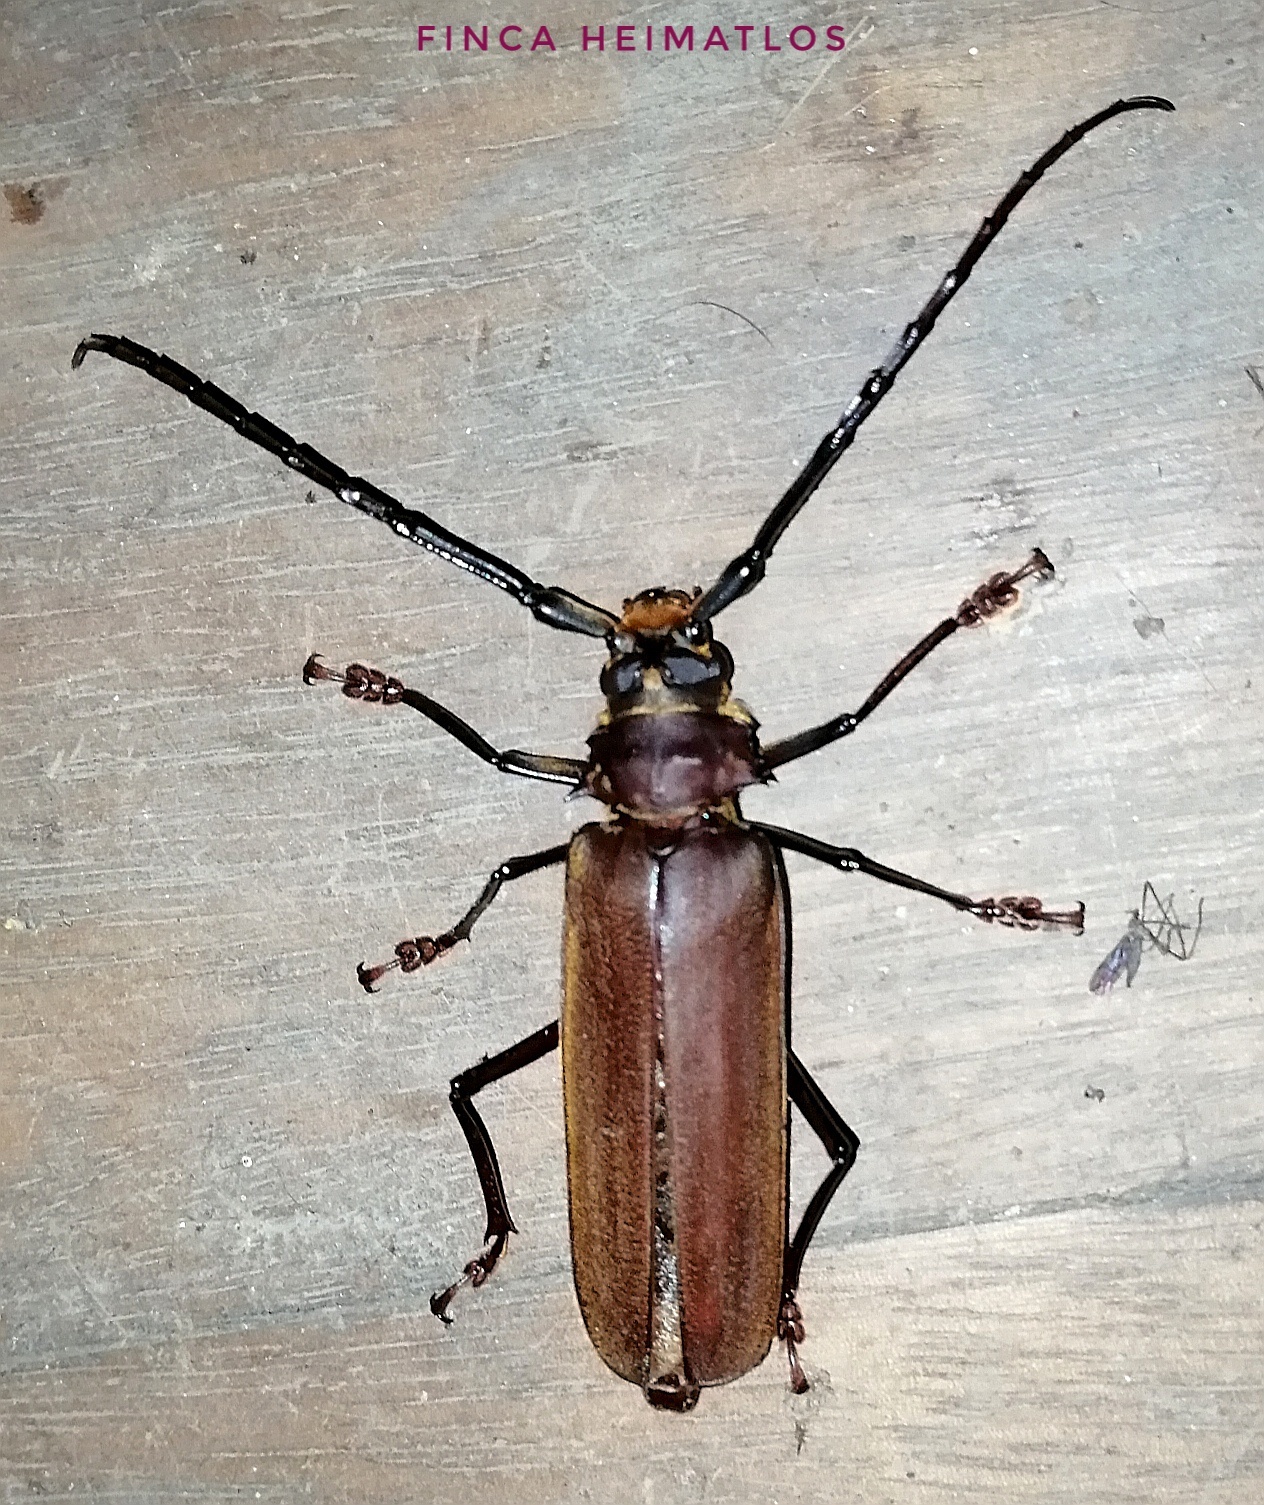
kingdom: Animalia
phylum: Arthropoda
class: Insecta
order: Coleoptera
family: Cerambycidae
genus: Orthomegas
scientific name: Orthomegas cinnamomeus
